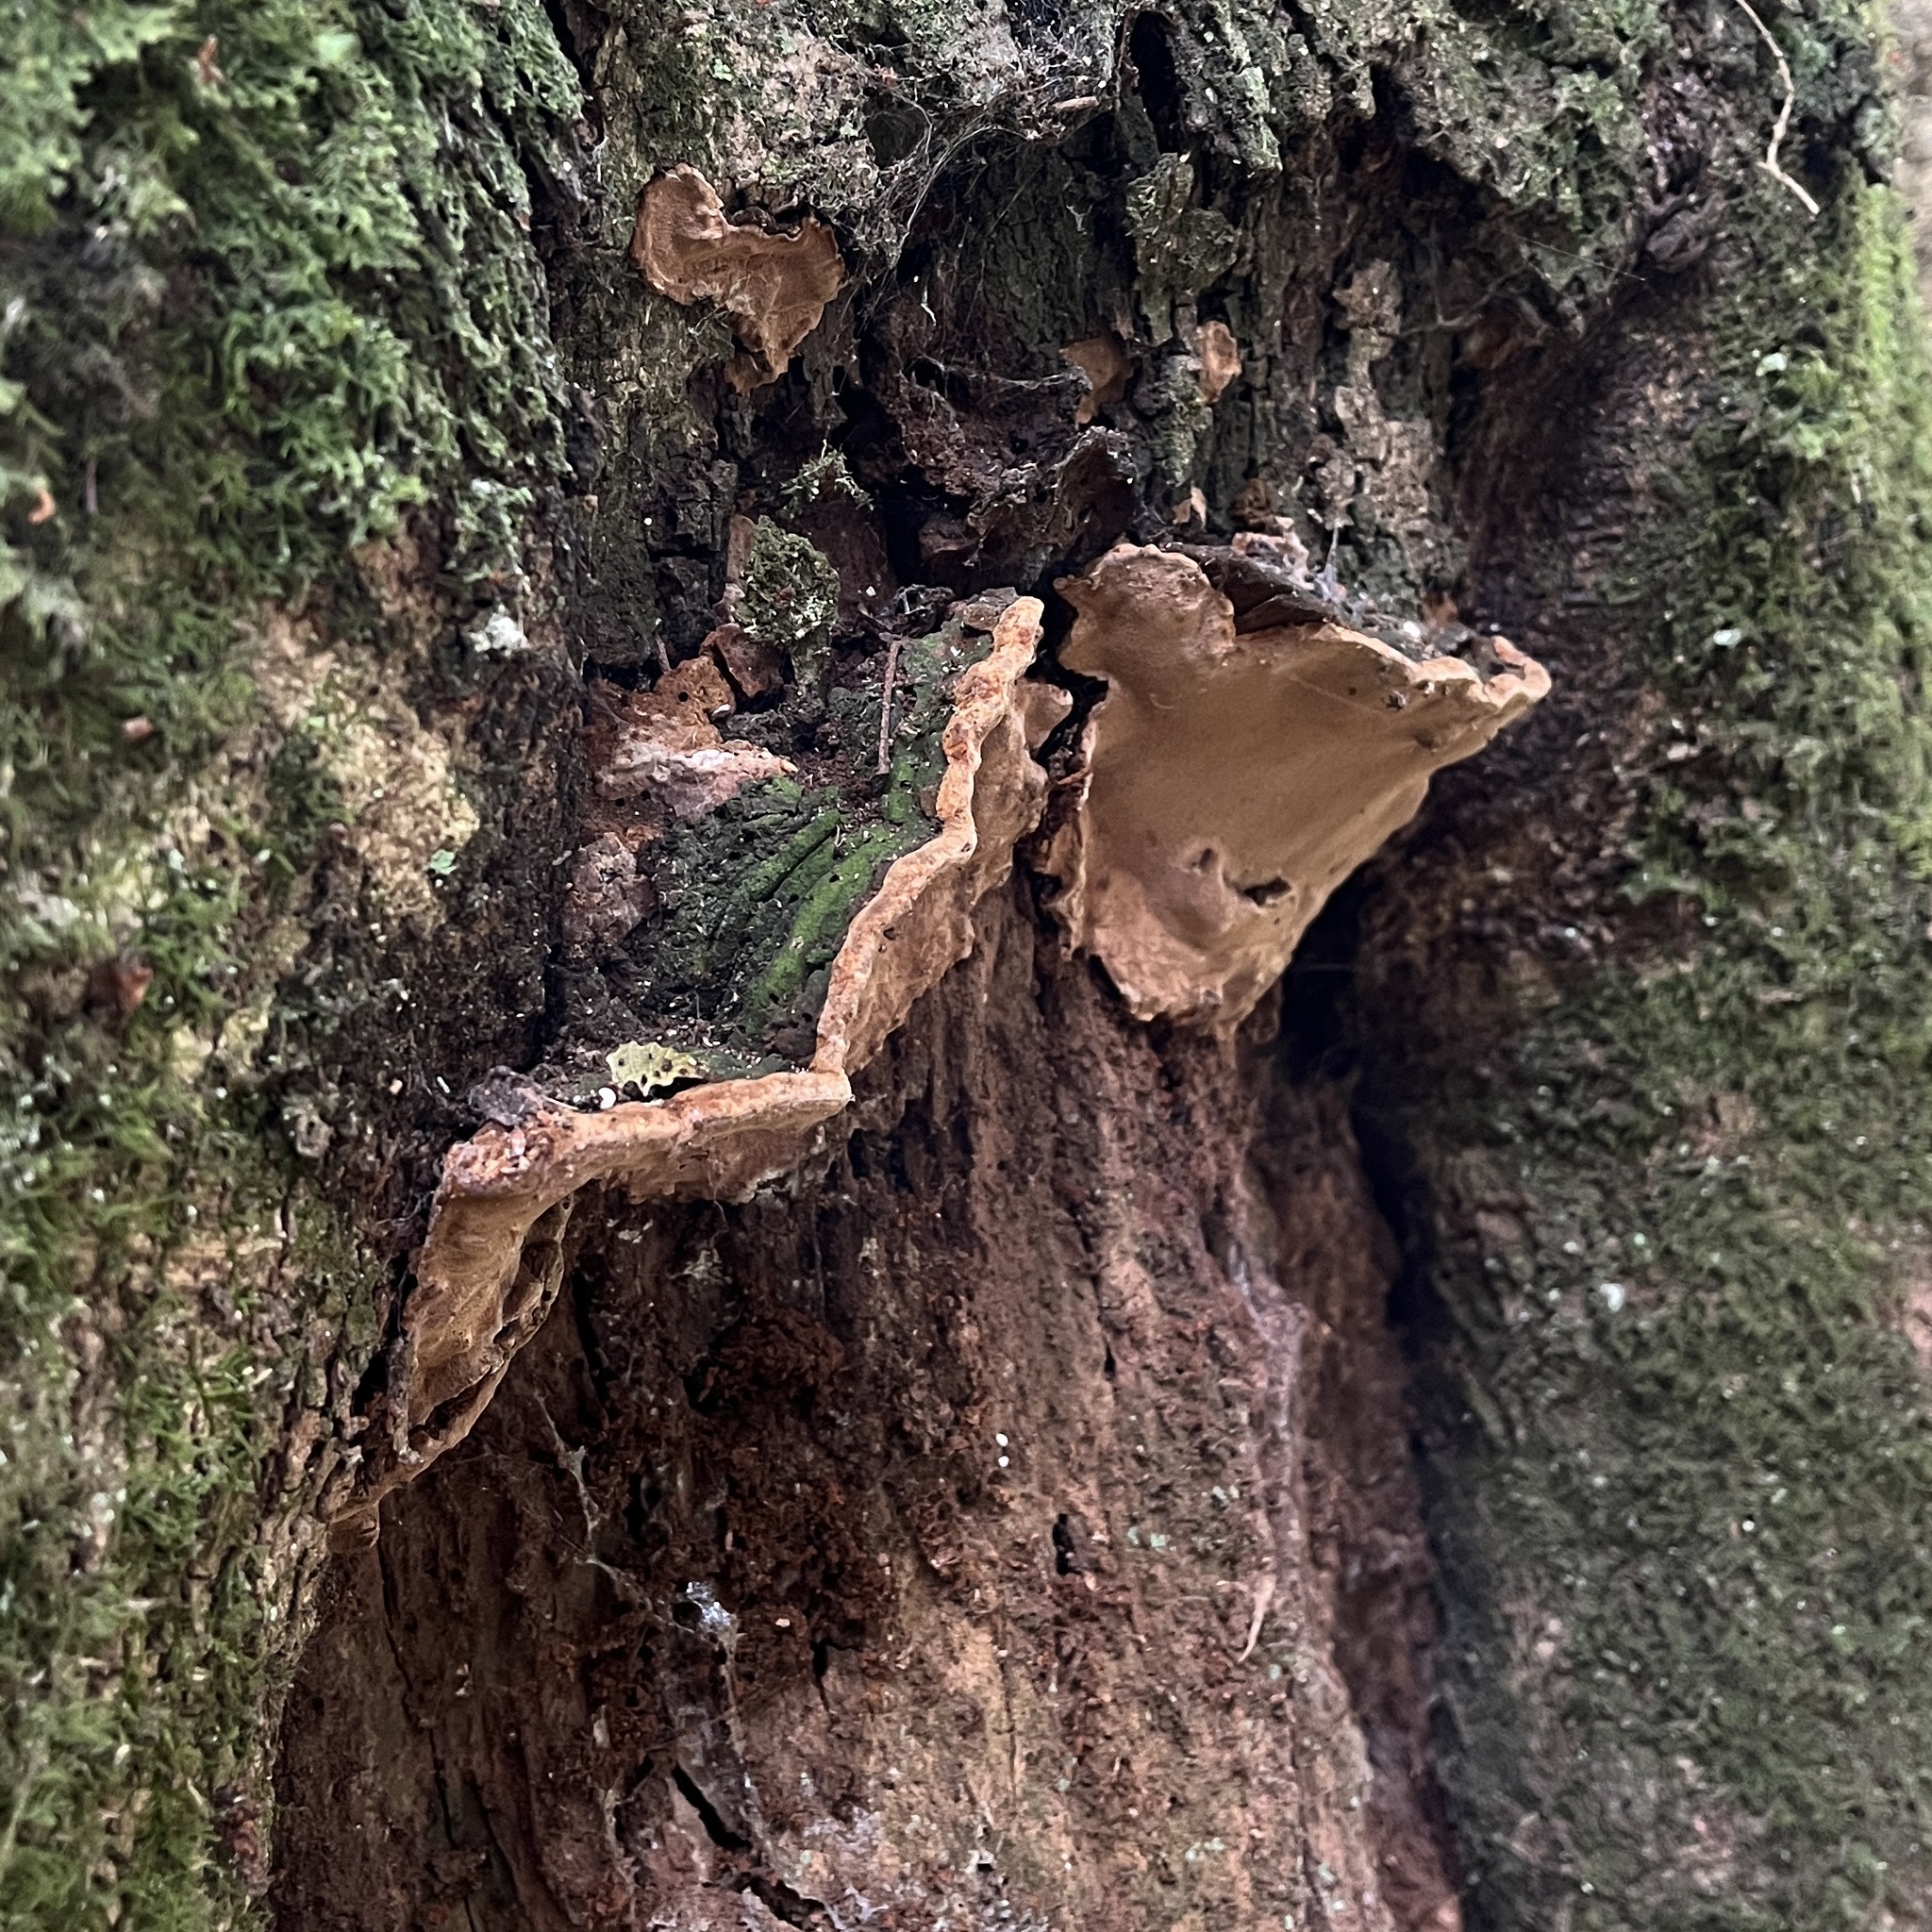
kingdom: Fungi
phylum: Basidiomycota
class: Agaricomycetes
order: Hymenochaetales
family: Hymenochaetaceae
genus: Fuscoporia
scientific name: Fuscoporia senex
